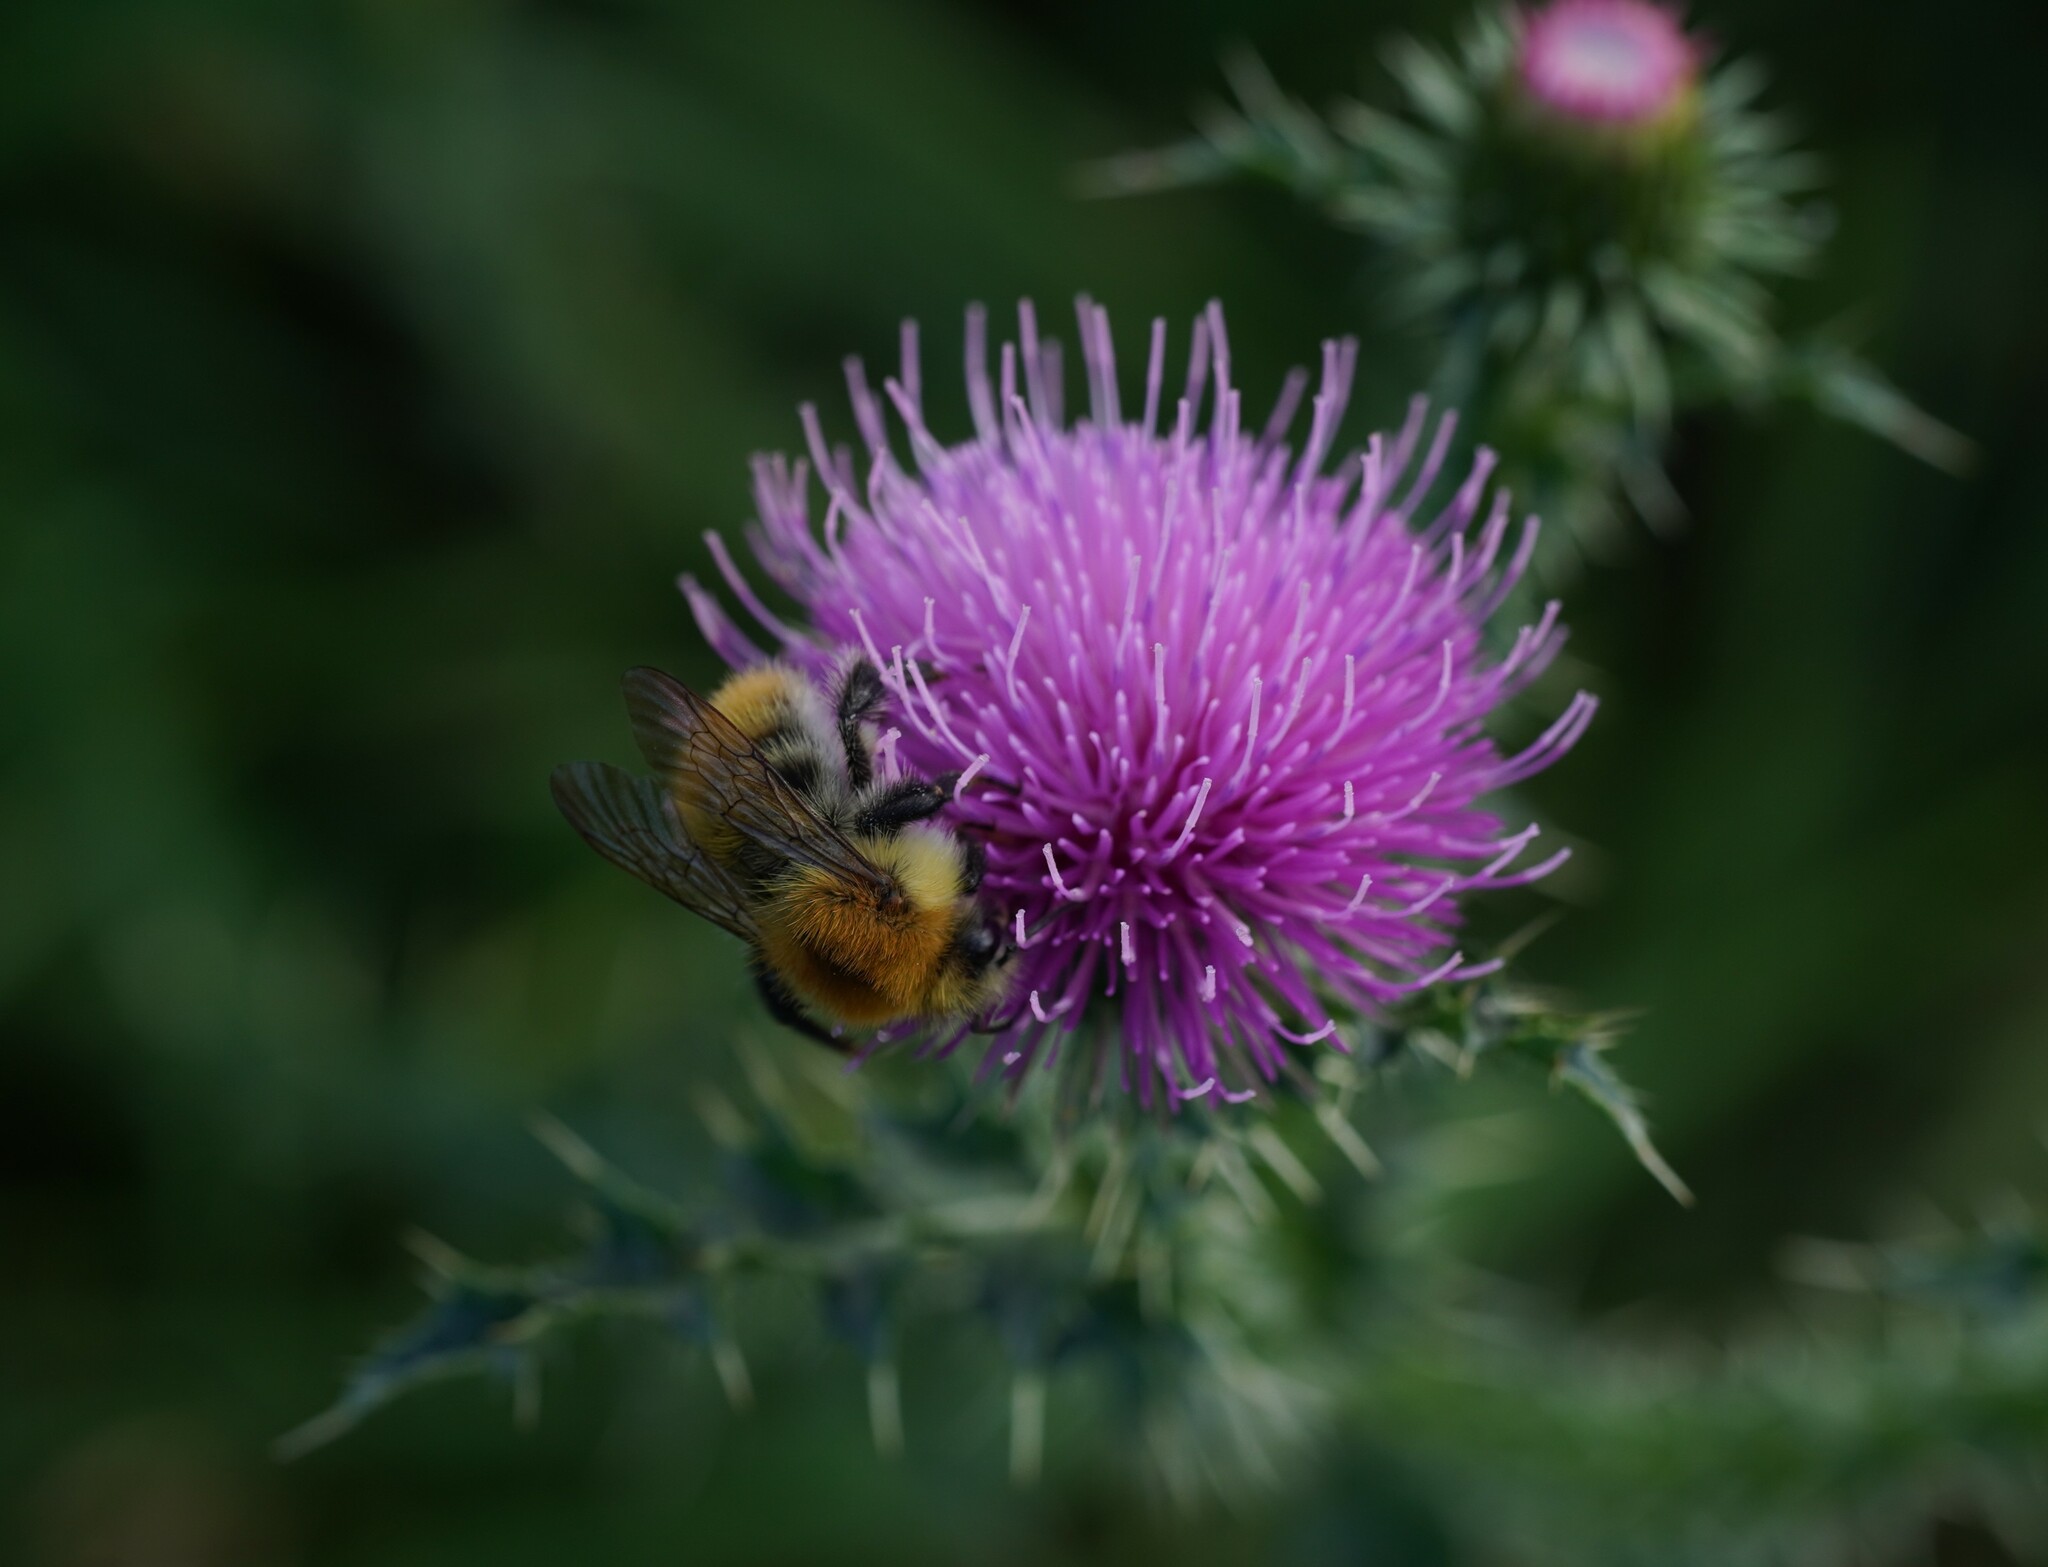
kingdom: Animalia
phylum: Arthropoda
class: Insecta
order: Hymenoptera
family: Apidae
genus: Bombus
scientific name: Bombus pascuorum
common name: Common carder bee
